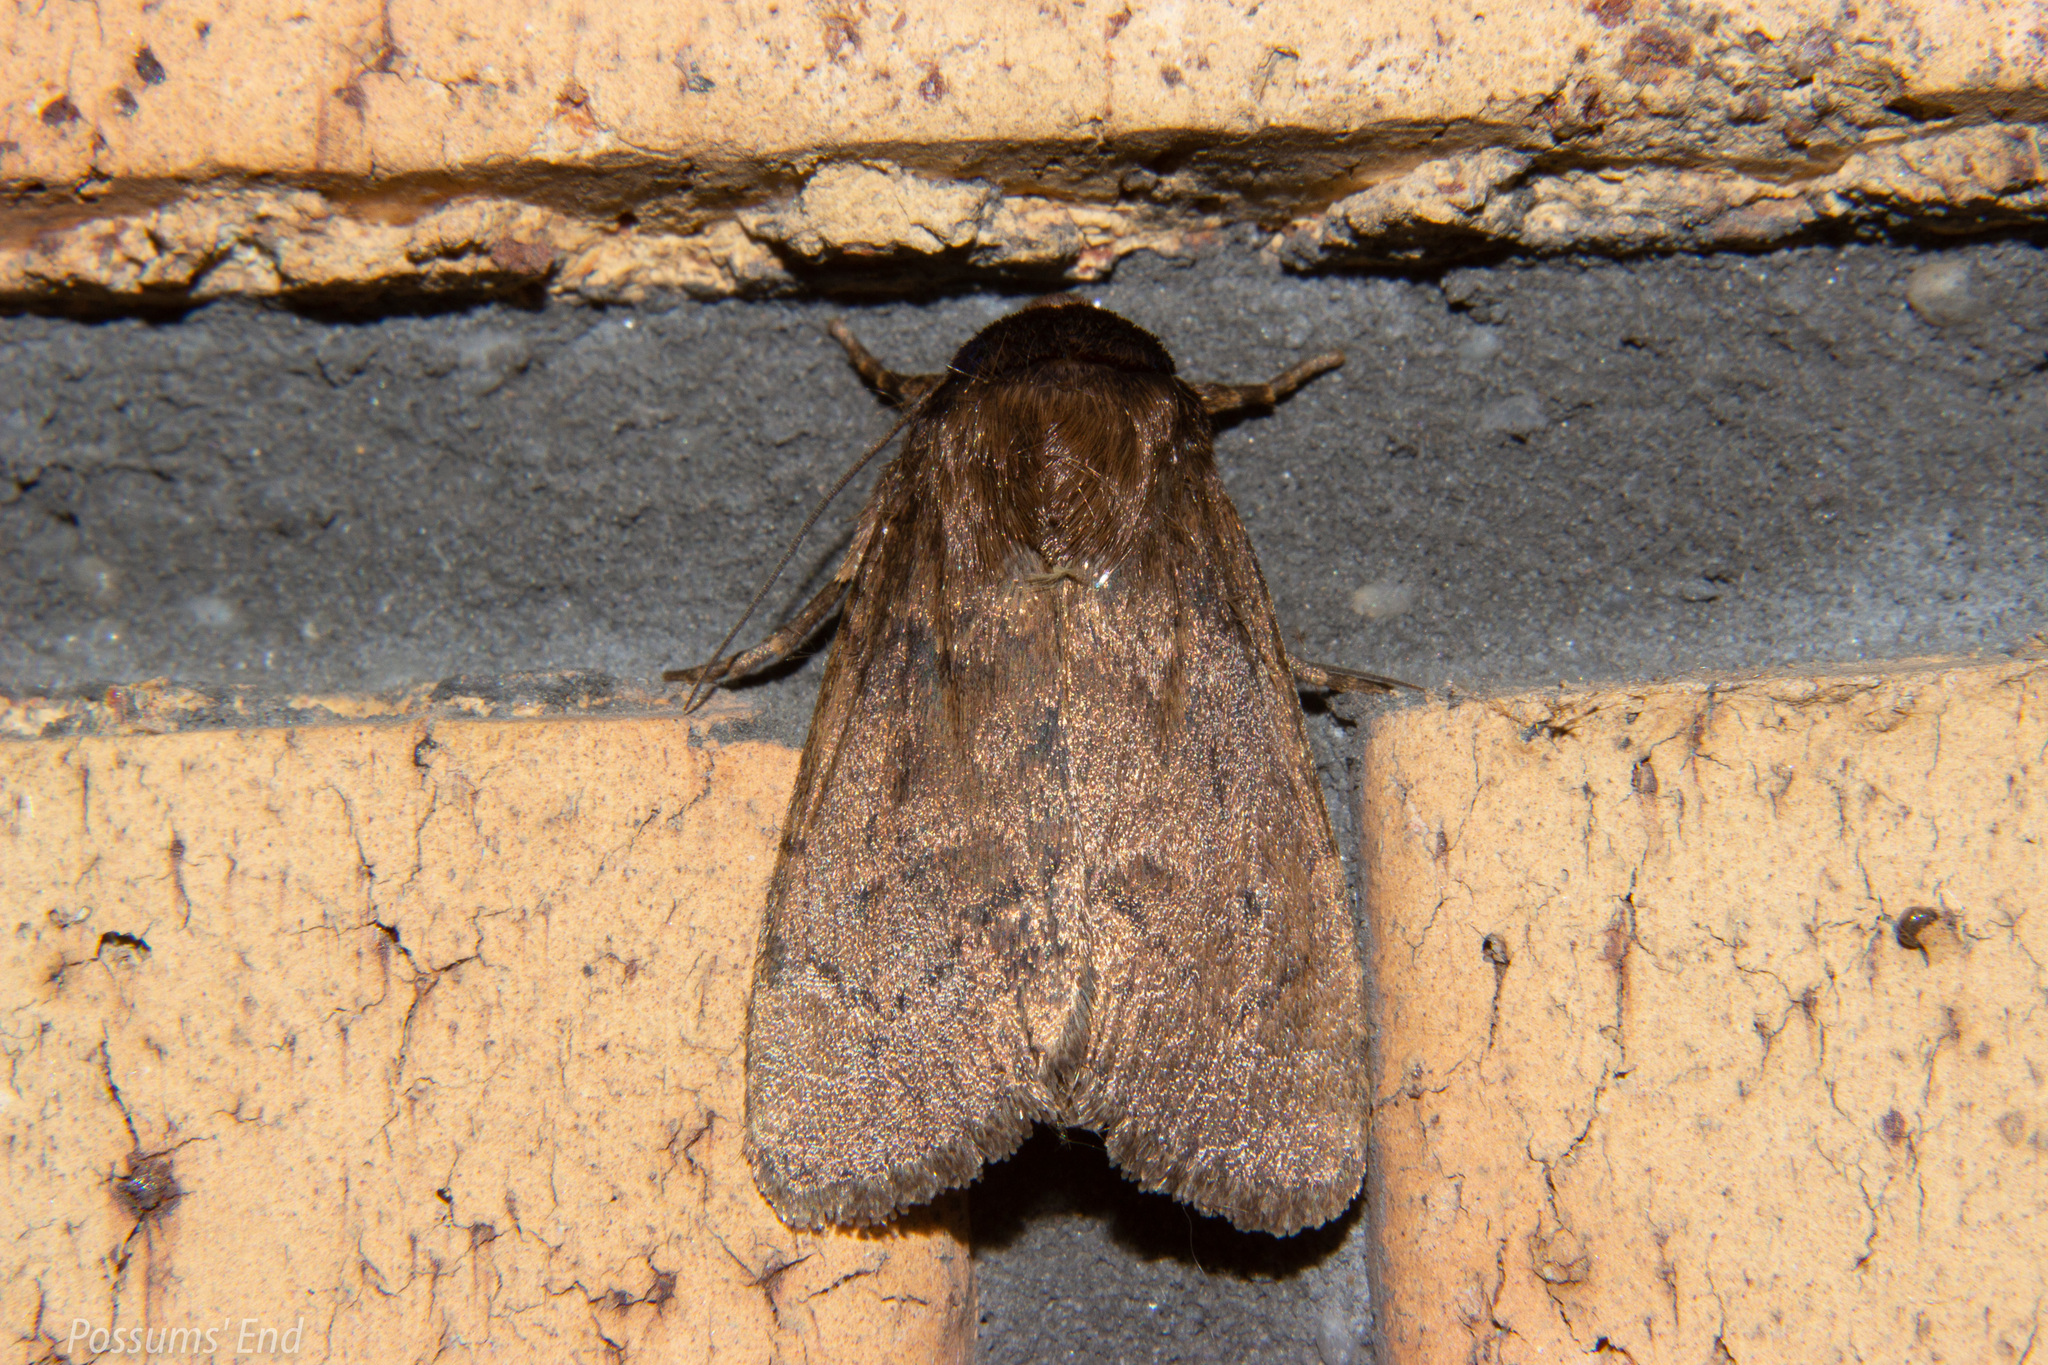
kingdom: Animalia
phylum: Arthropoda
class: Insecta
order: Lepidoptera
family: Noctuidae
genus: Bityla
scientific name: Bityla defigurata
